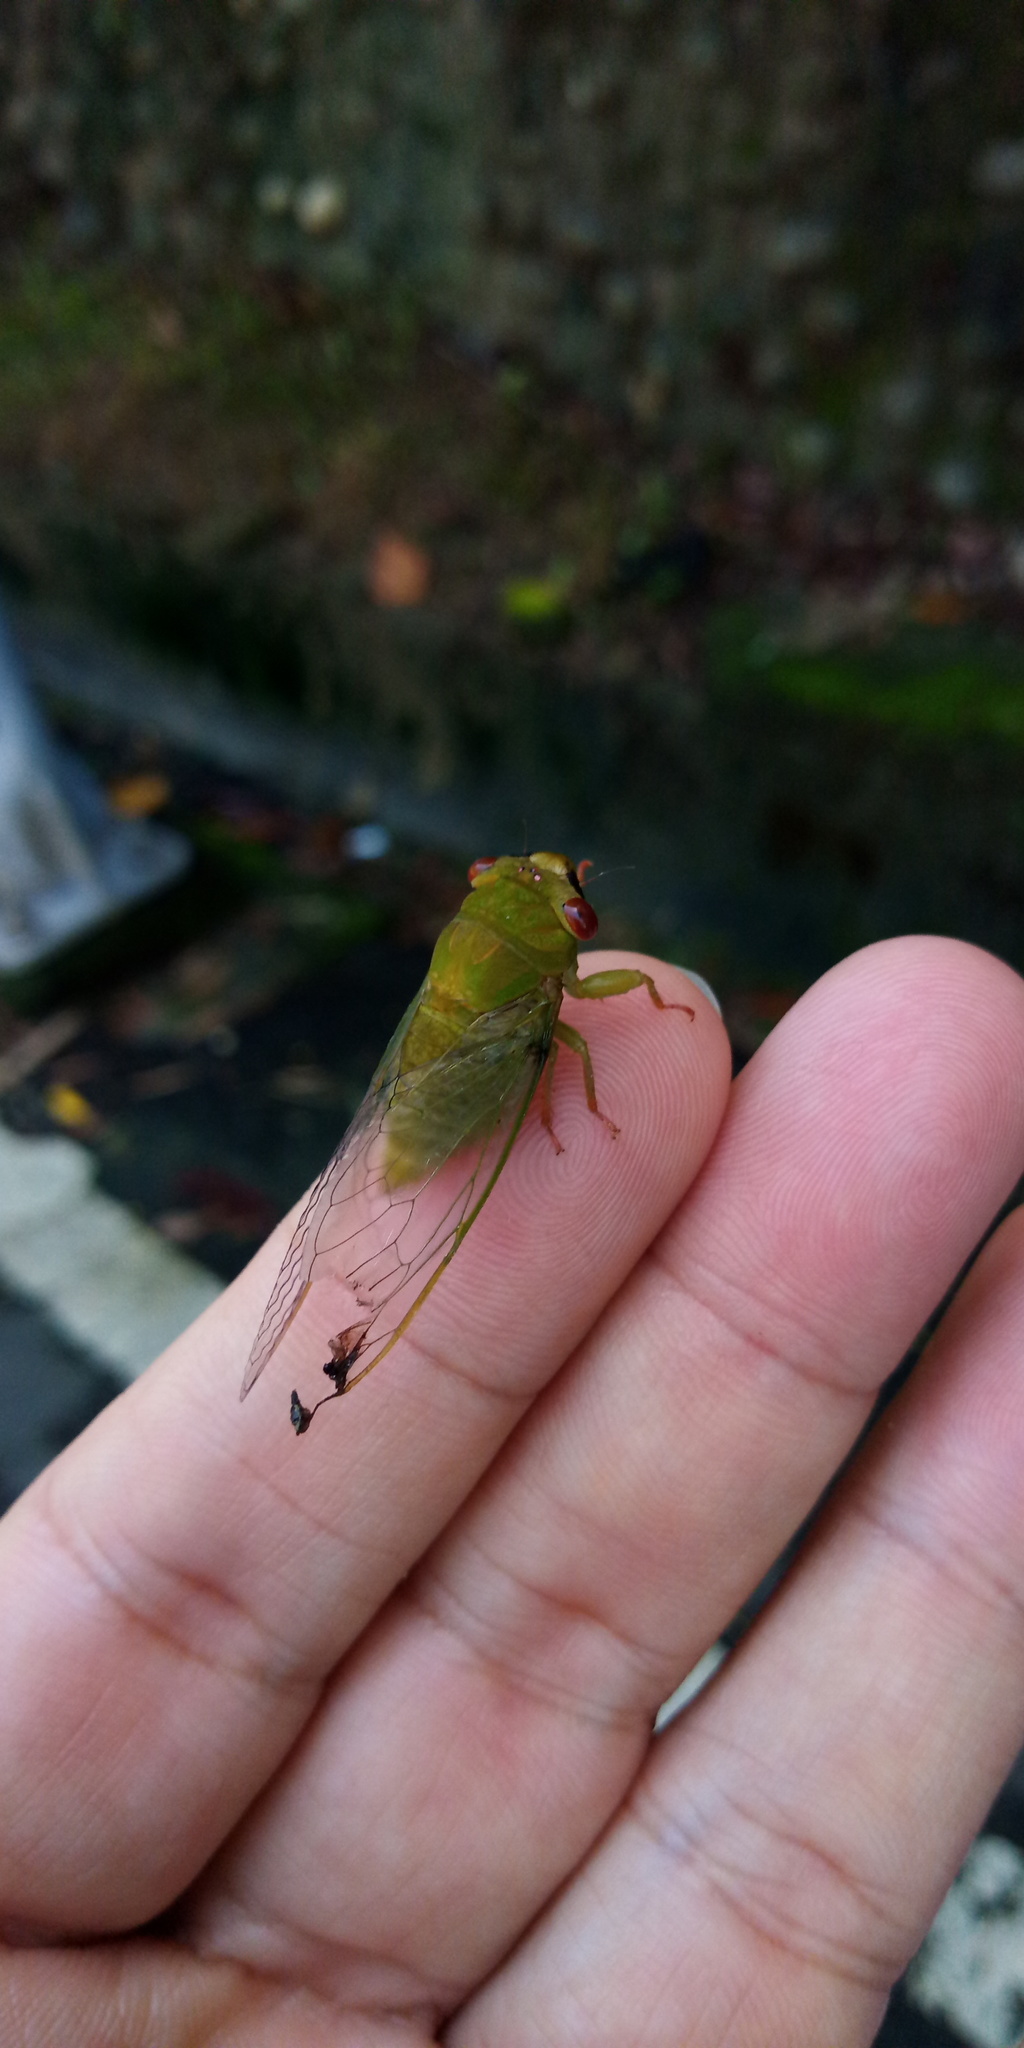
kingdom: Animalia
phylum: Arthropoda
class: Insecta
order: Hemiptera
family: Cicadidae
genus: Chremistica
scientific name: Chremistica ochracea
